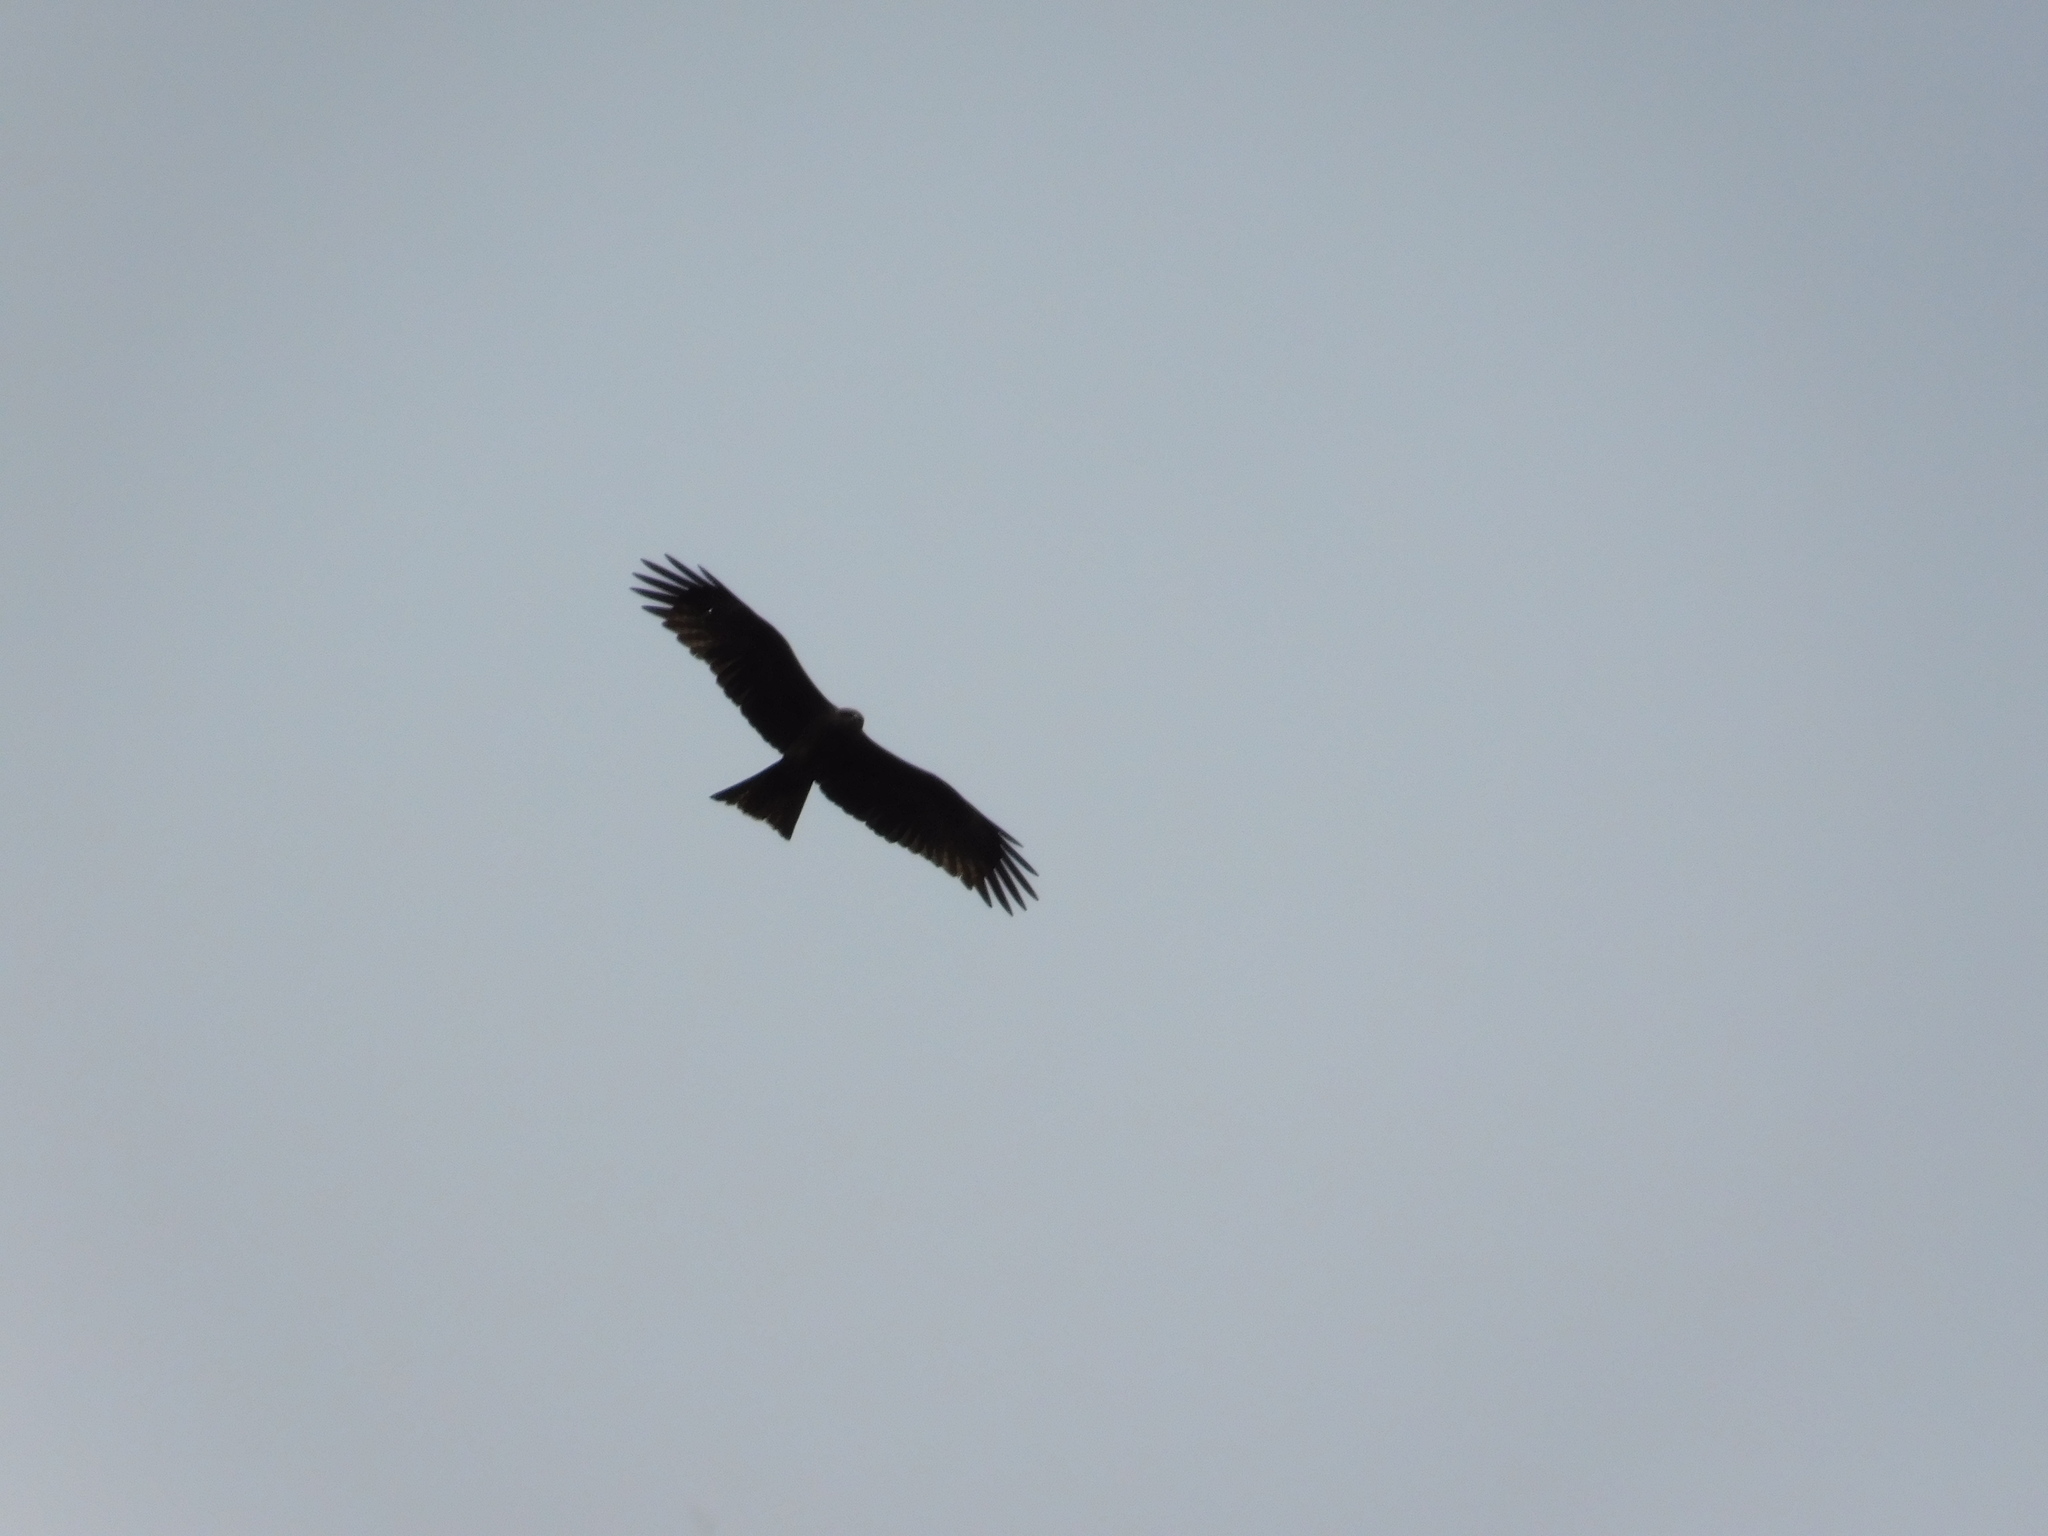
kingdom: Animalia
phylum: Chordata
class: Aves
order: Accipitriformes
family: Accipitridae
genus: Milvus
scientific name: Milvus migrans
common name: Black kite
